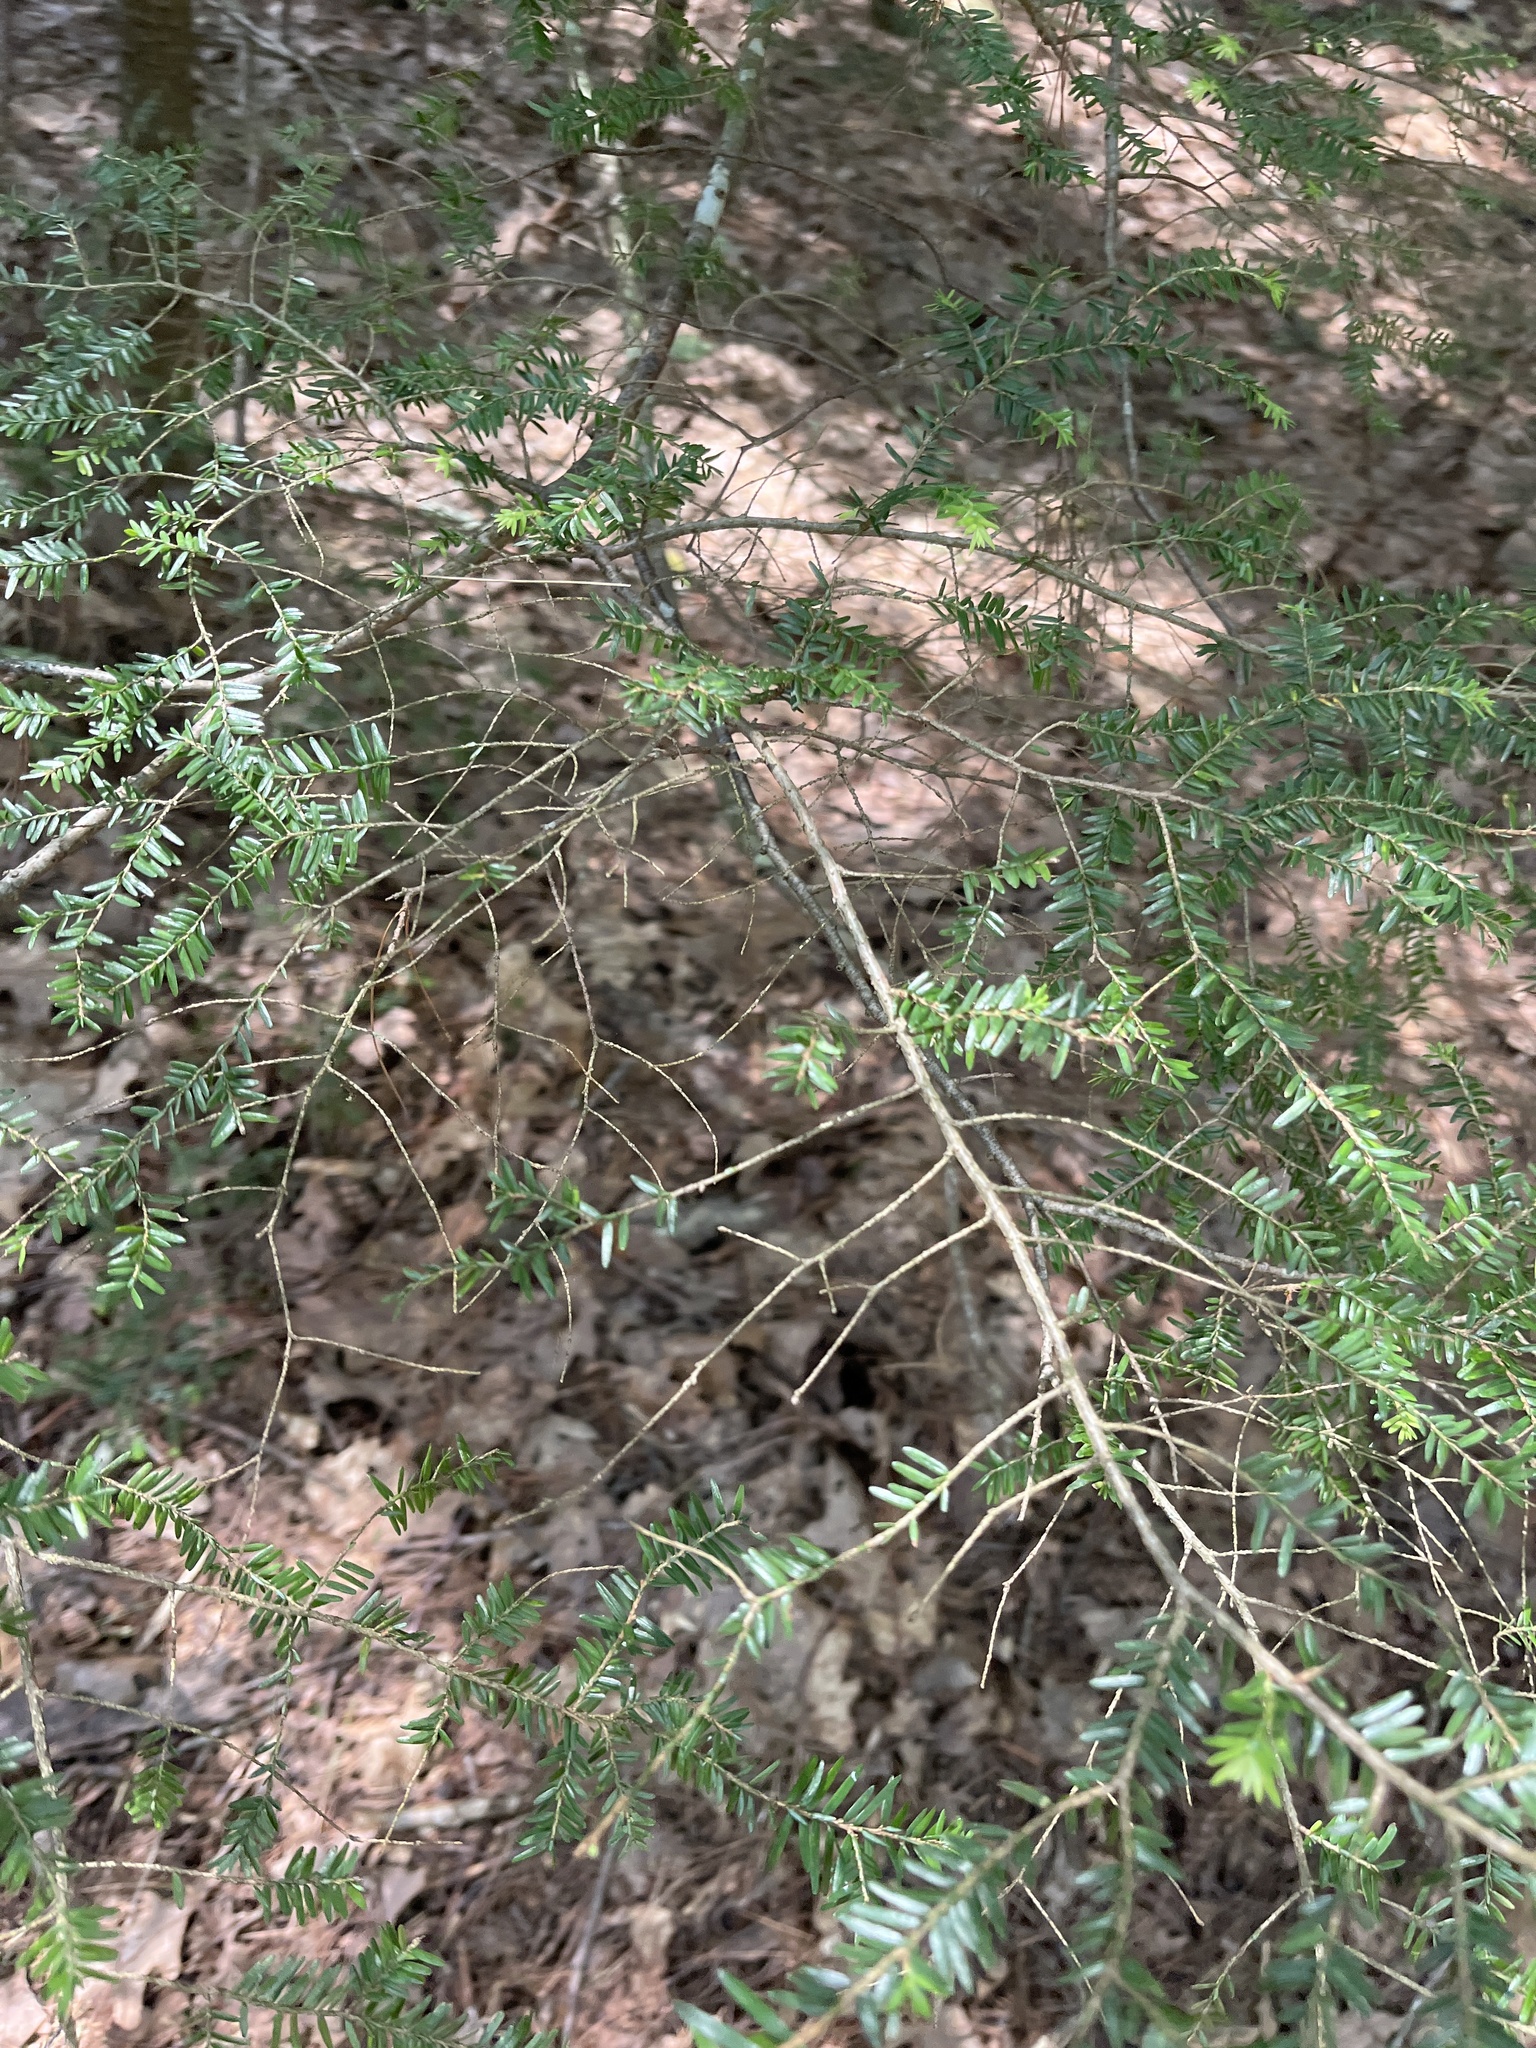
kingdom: Plantae
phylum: Tracheophyta
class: Pinopsida
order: Pinales
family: Pinaceae
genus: Tsuga
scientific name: Tsuga canadensis
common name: Eastern hemlock
